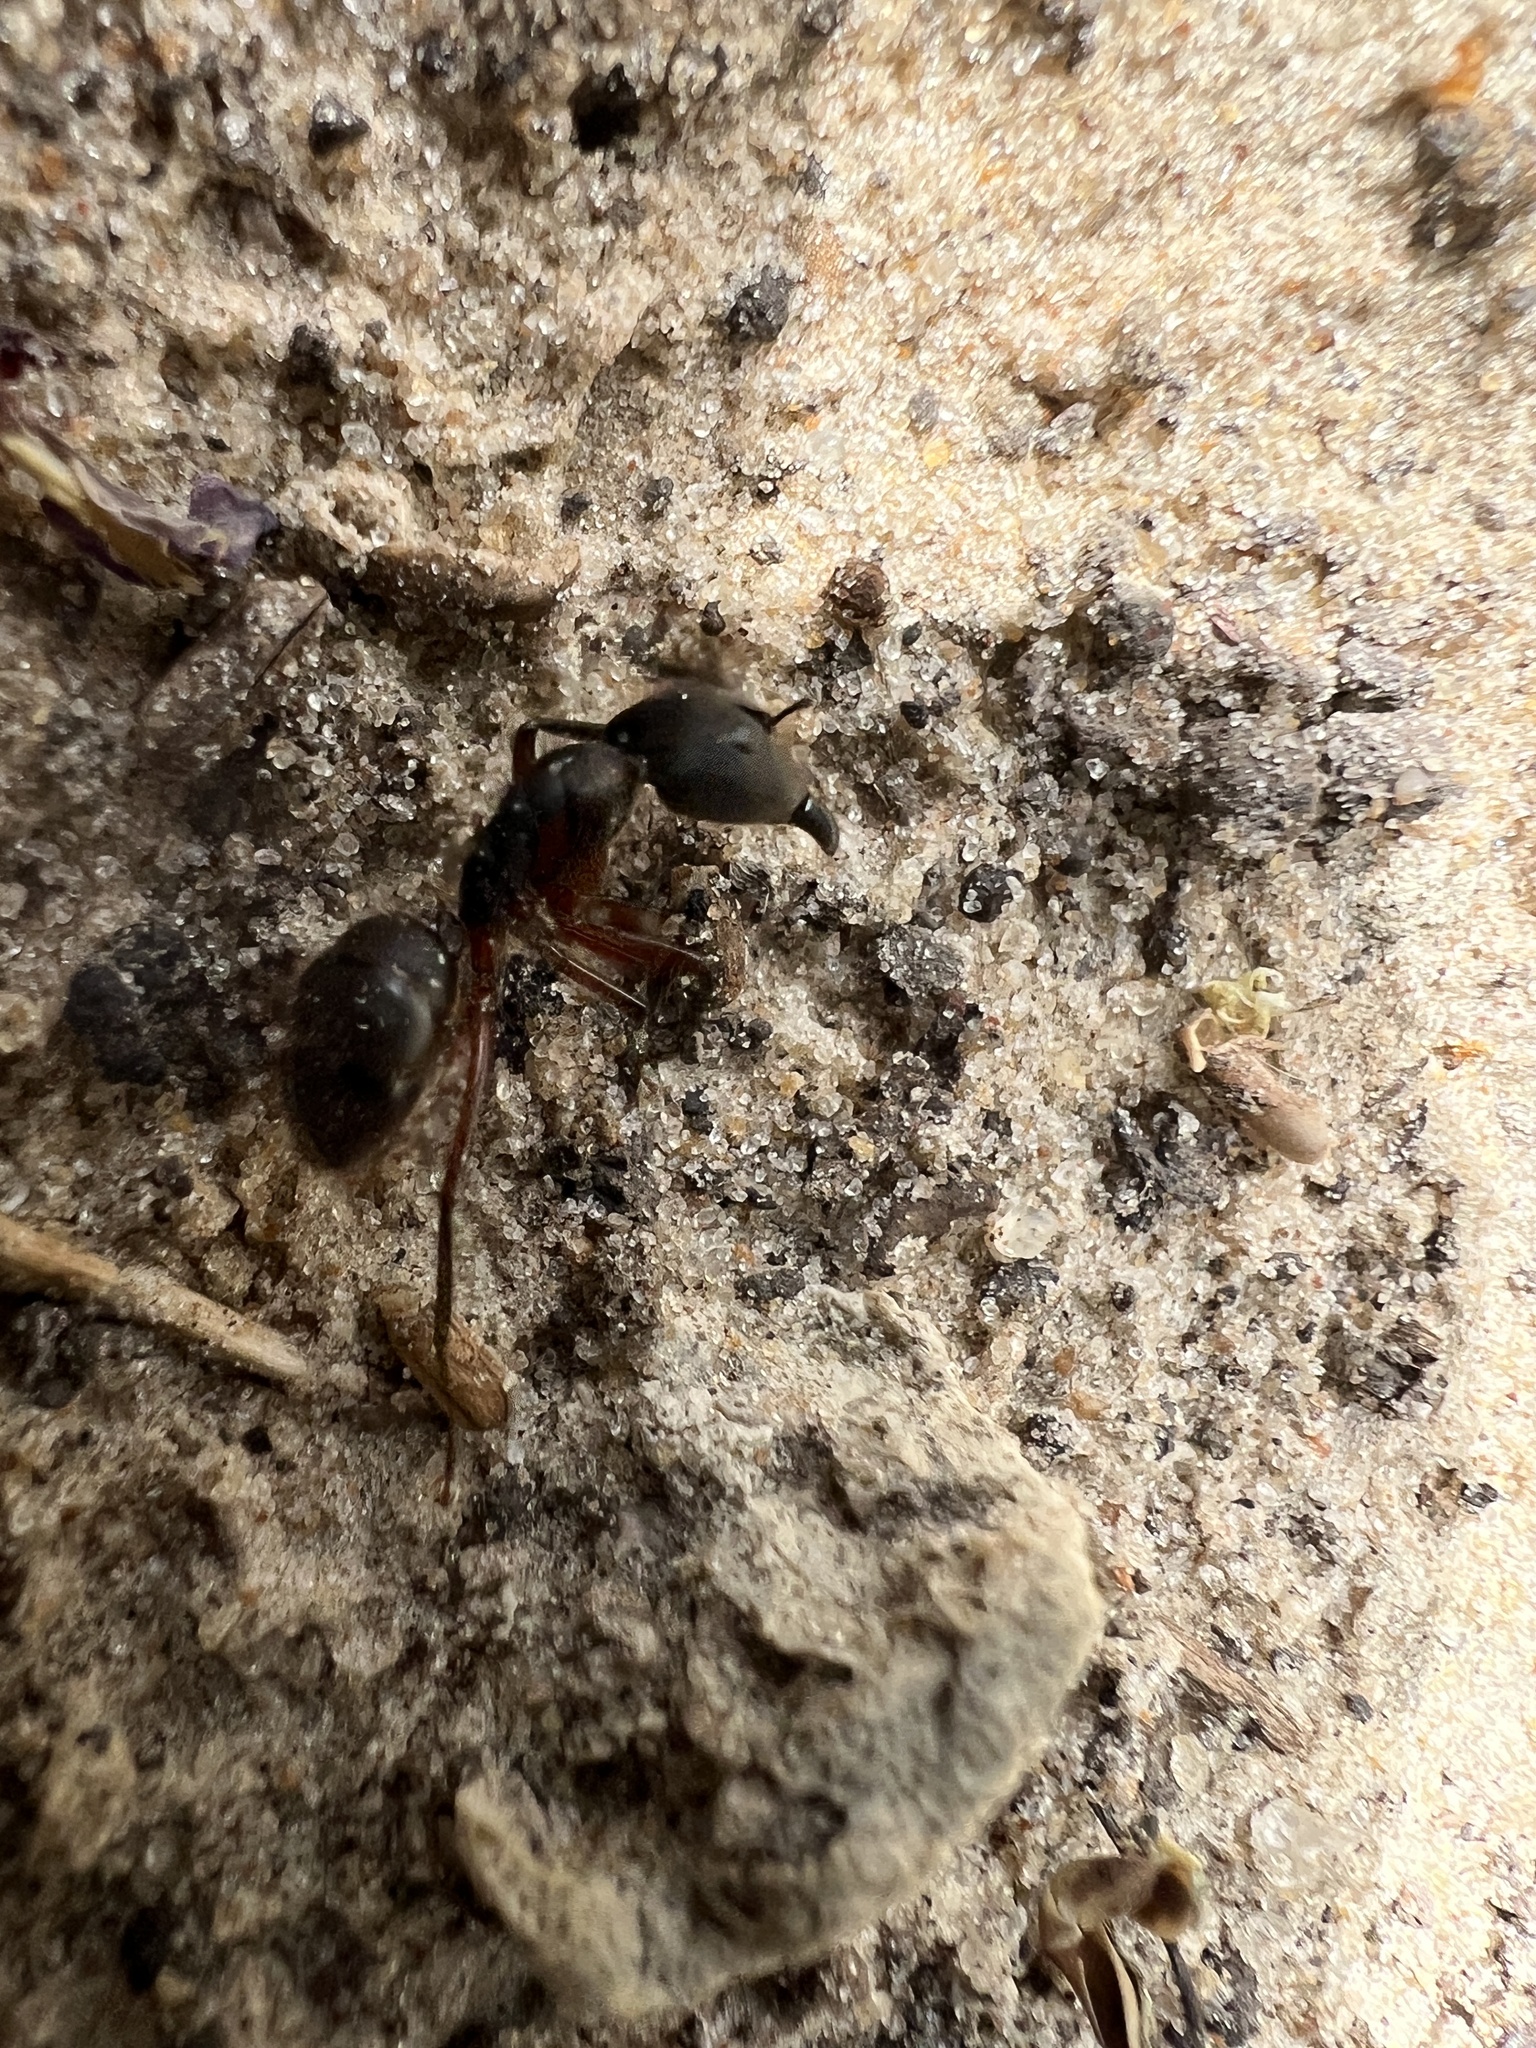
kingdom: Animalia
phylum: Arthropoda
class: Insecta
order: Hymenoptera
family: Formicidae
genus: Camponotus
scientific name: Camponotus rufipes
